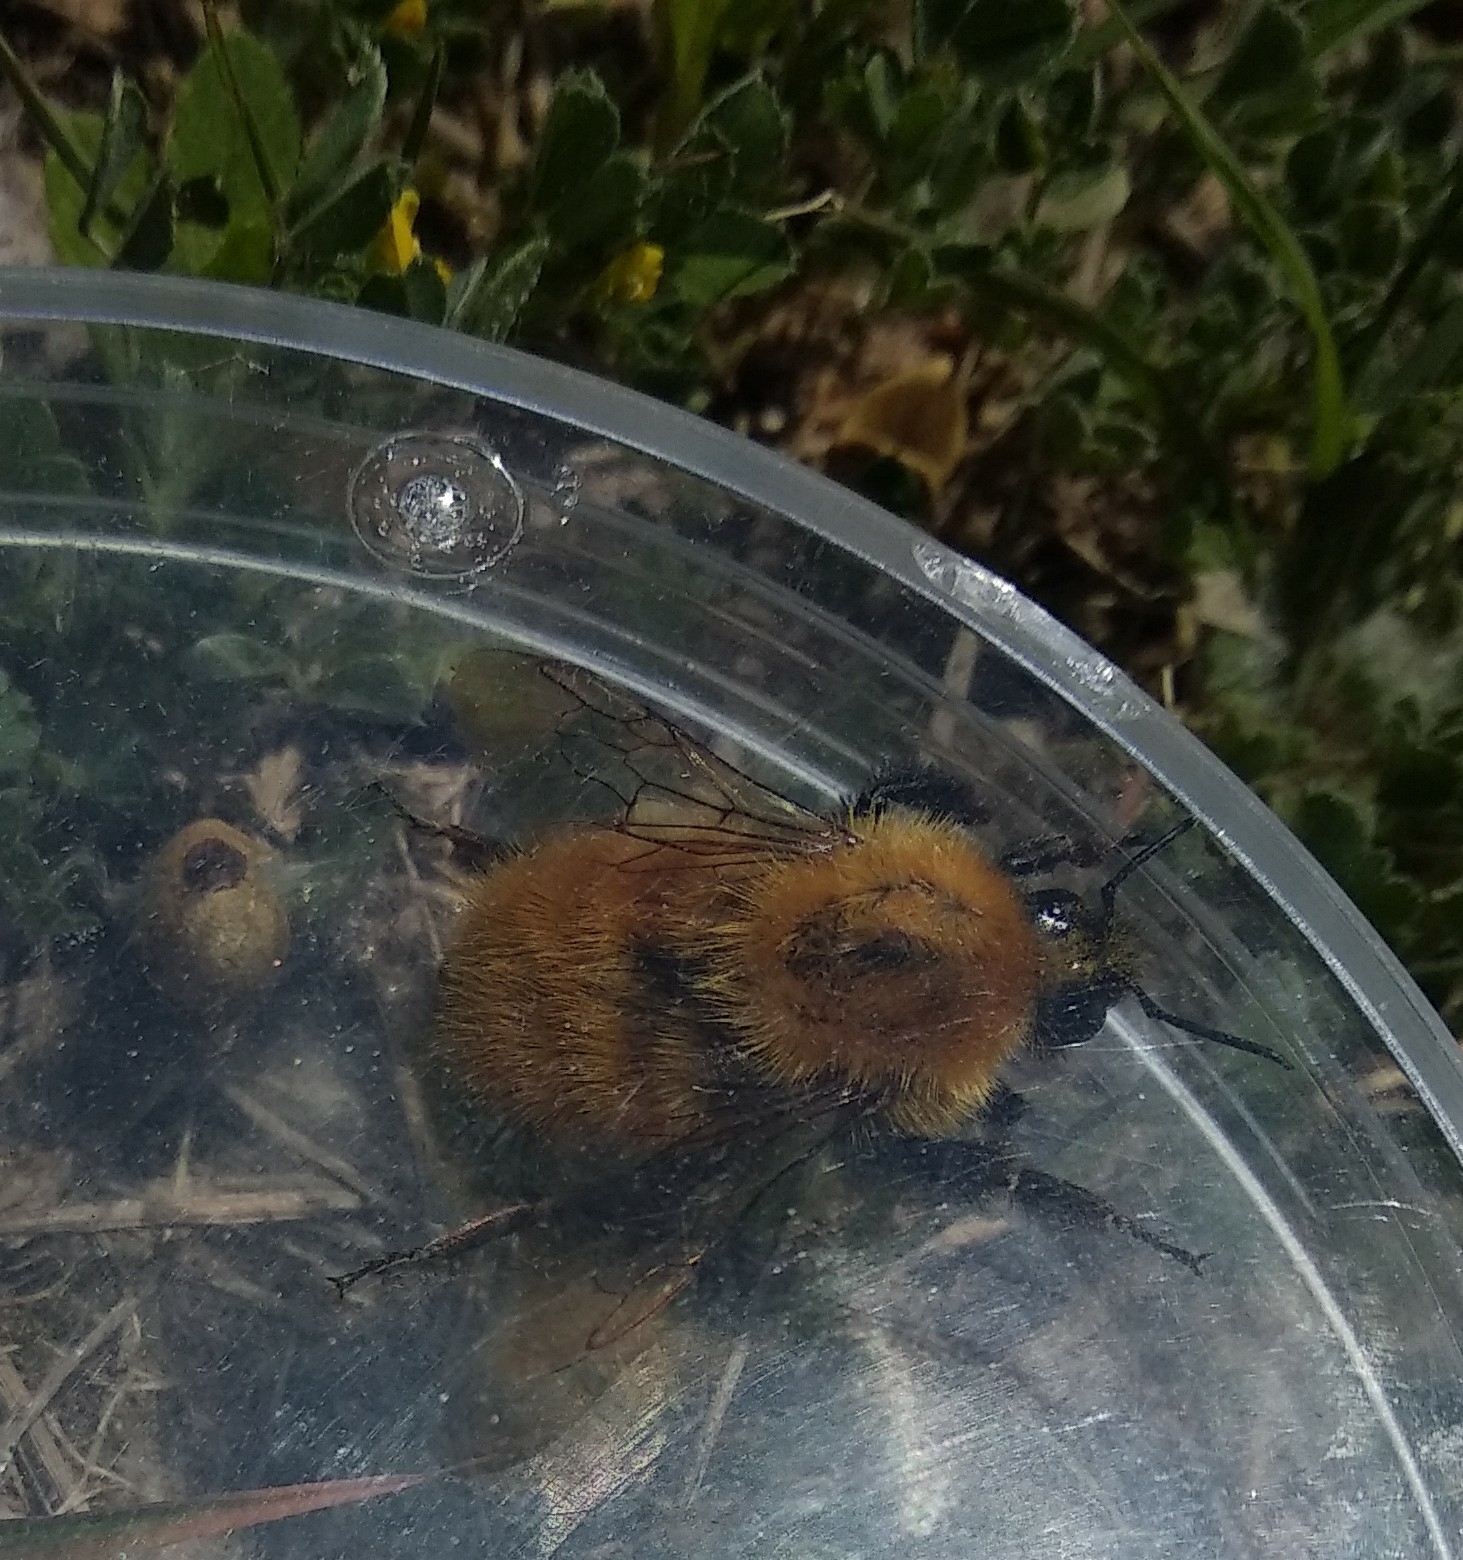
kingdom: Animalia
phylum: Arthropoda
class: Insecta
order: Hymenoptera
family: Apidae
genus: Bombus
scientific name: Bombus pascuorum
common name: Common carder bee
